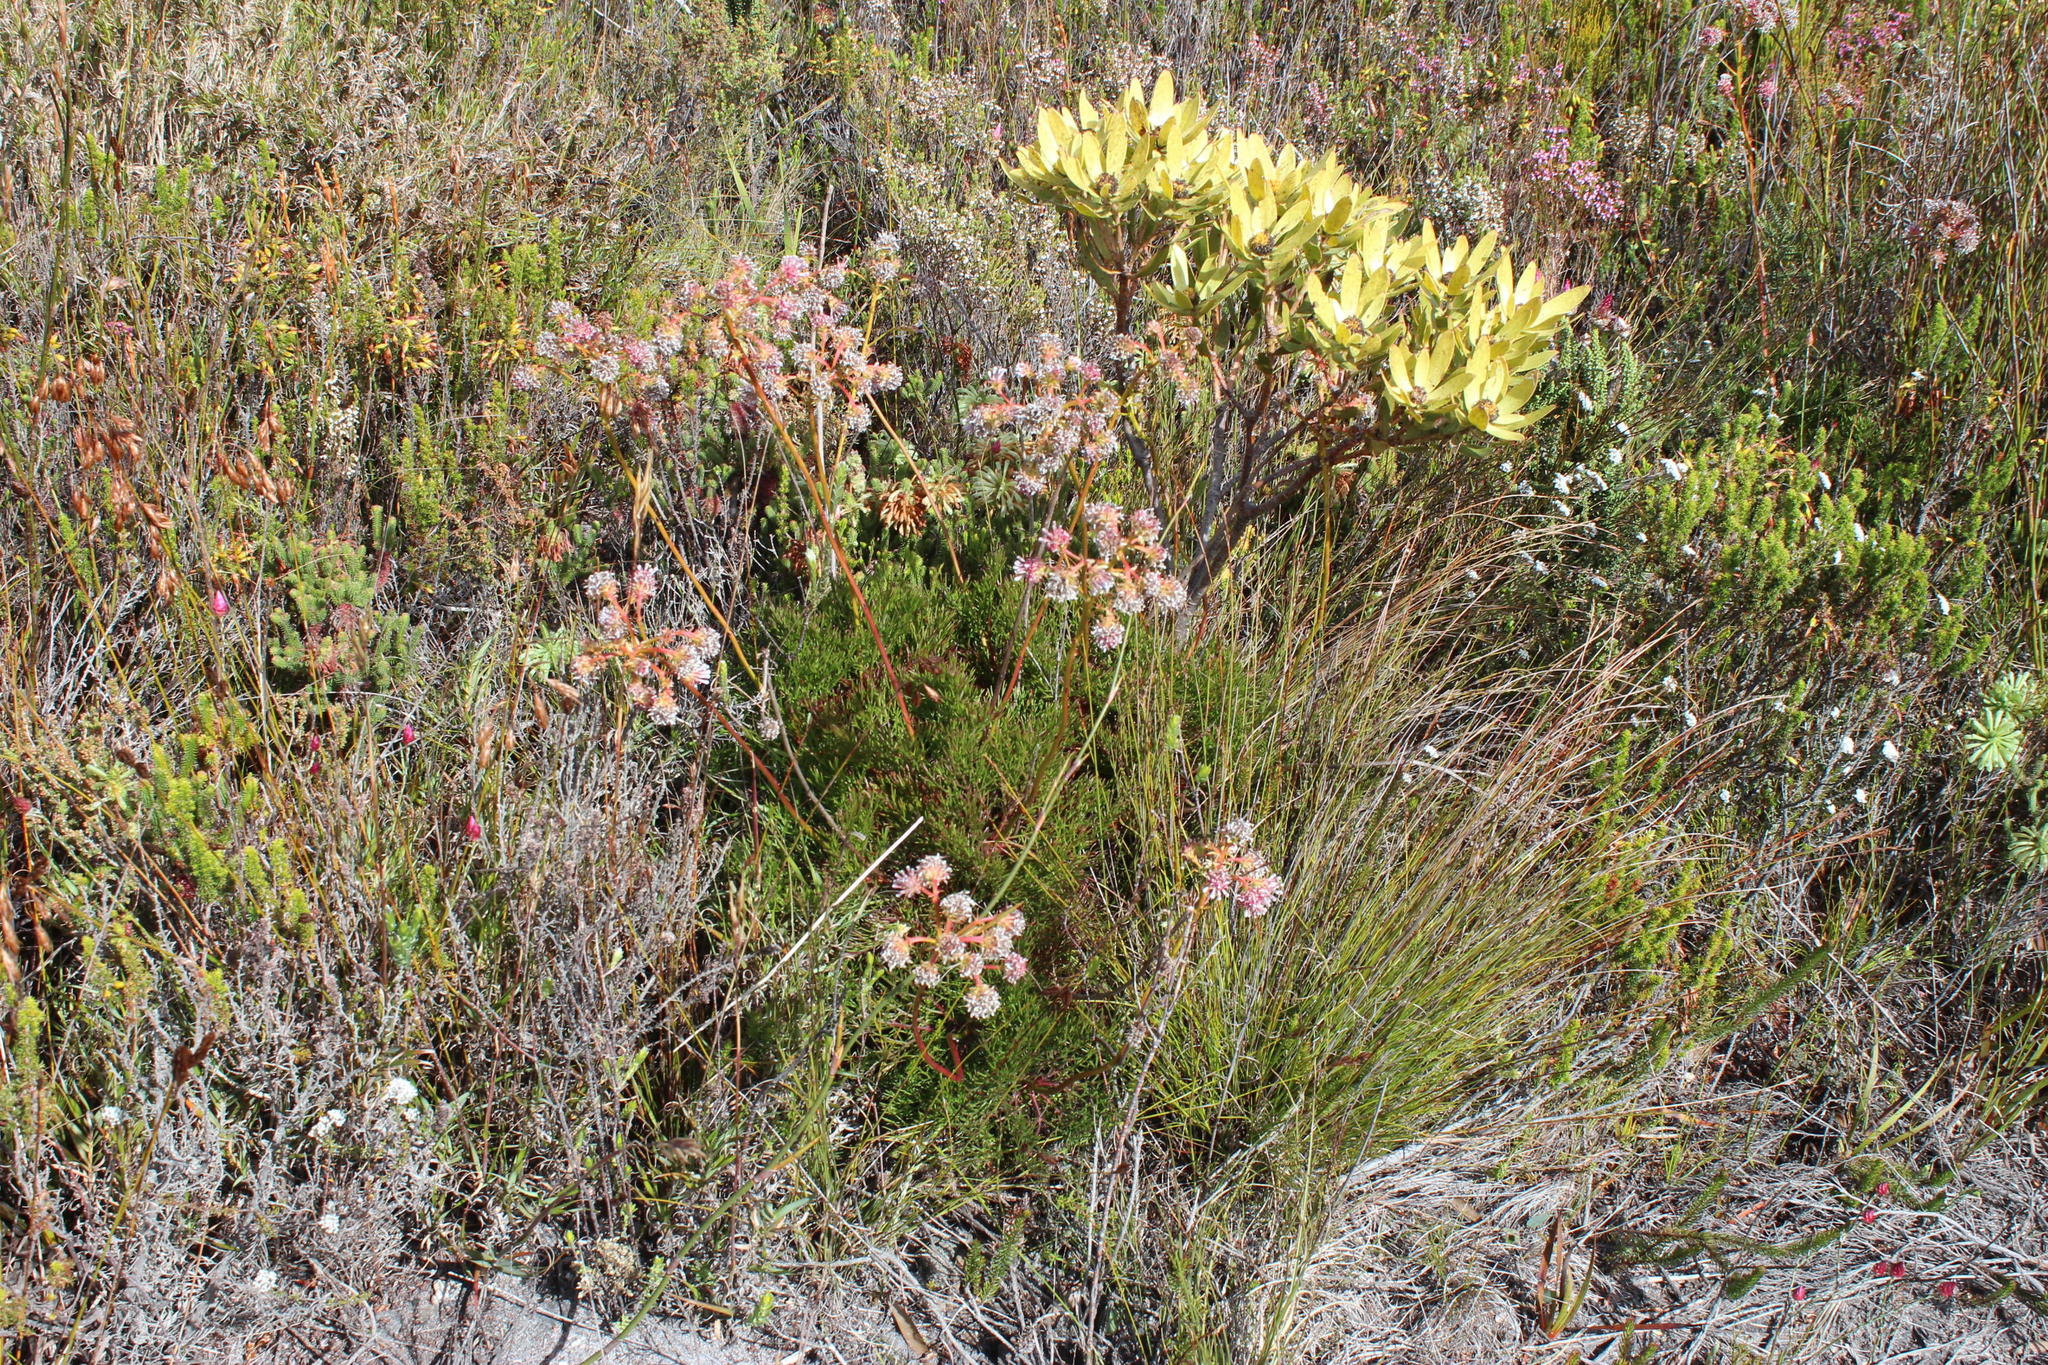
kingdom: Plantae
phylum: Tracheophyta
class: Magnoliopsida
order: Proteales
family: Proteaceae
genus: Serruria
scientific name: Serruria elongata
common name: Long-stalk spiderhead
